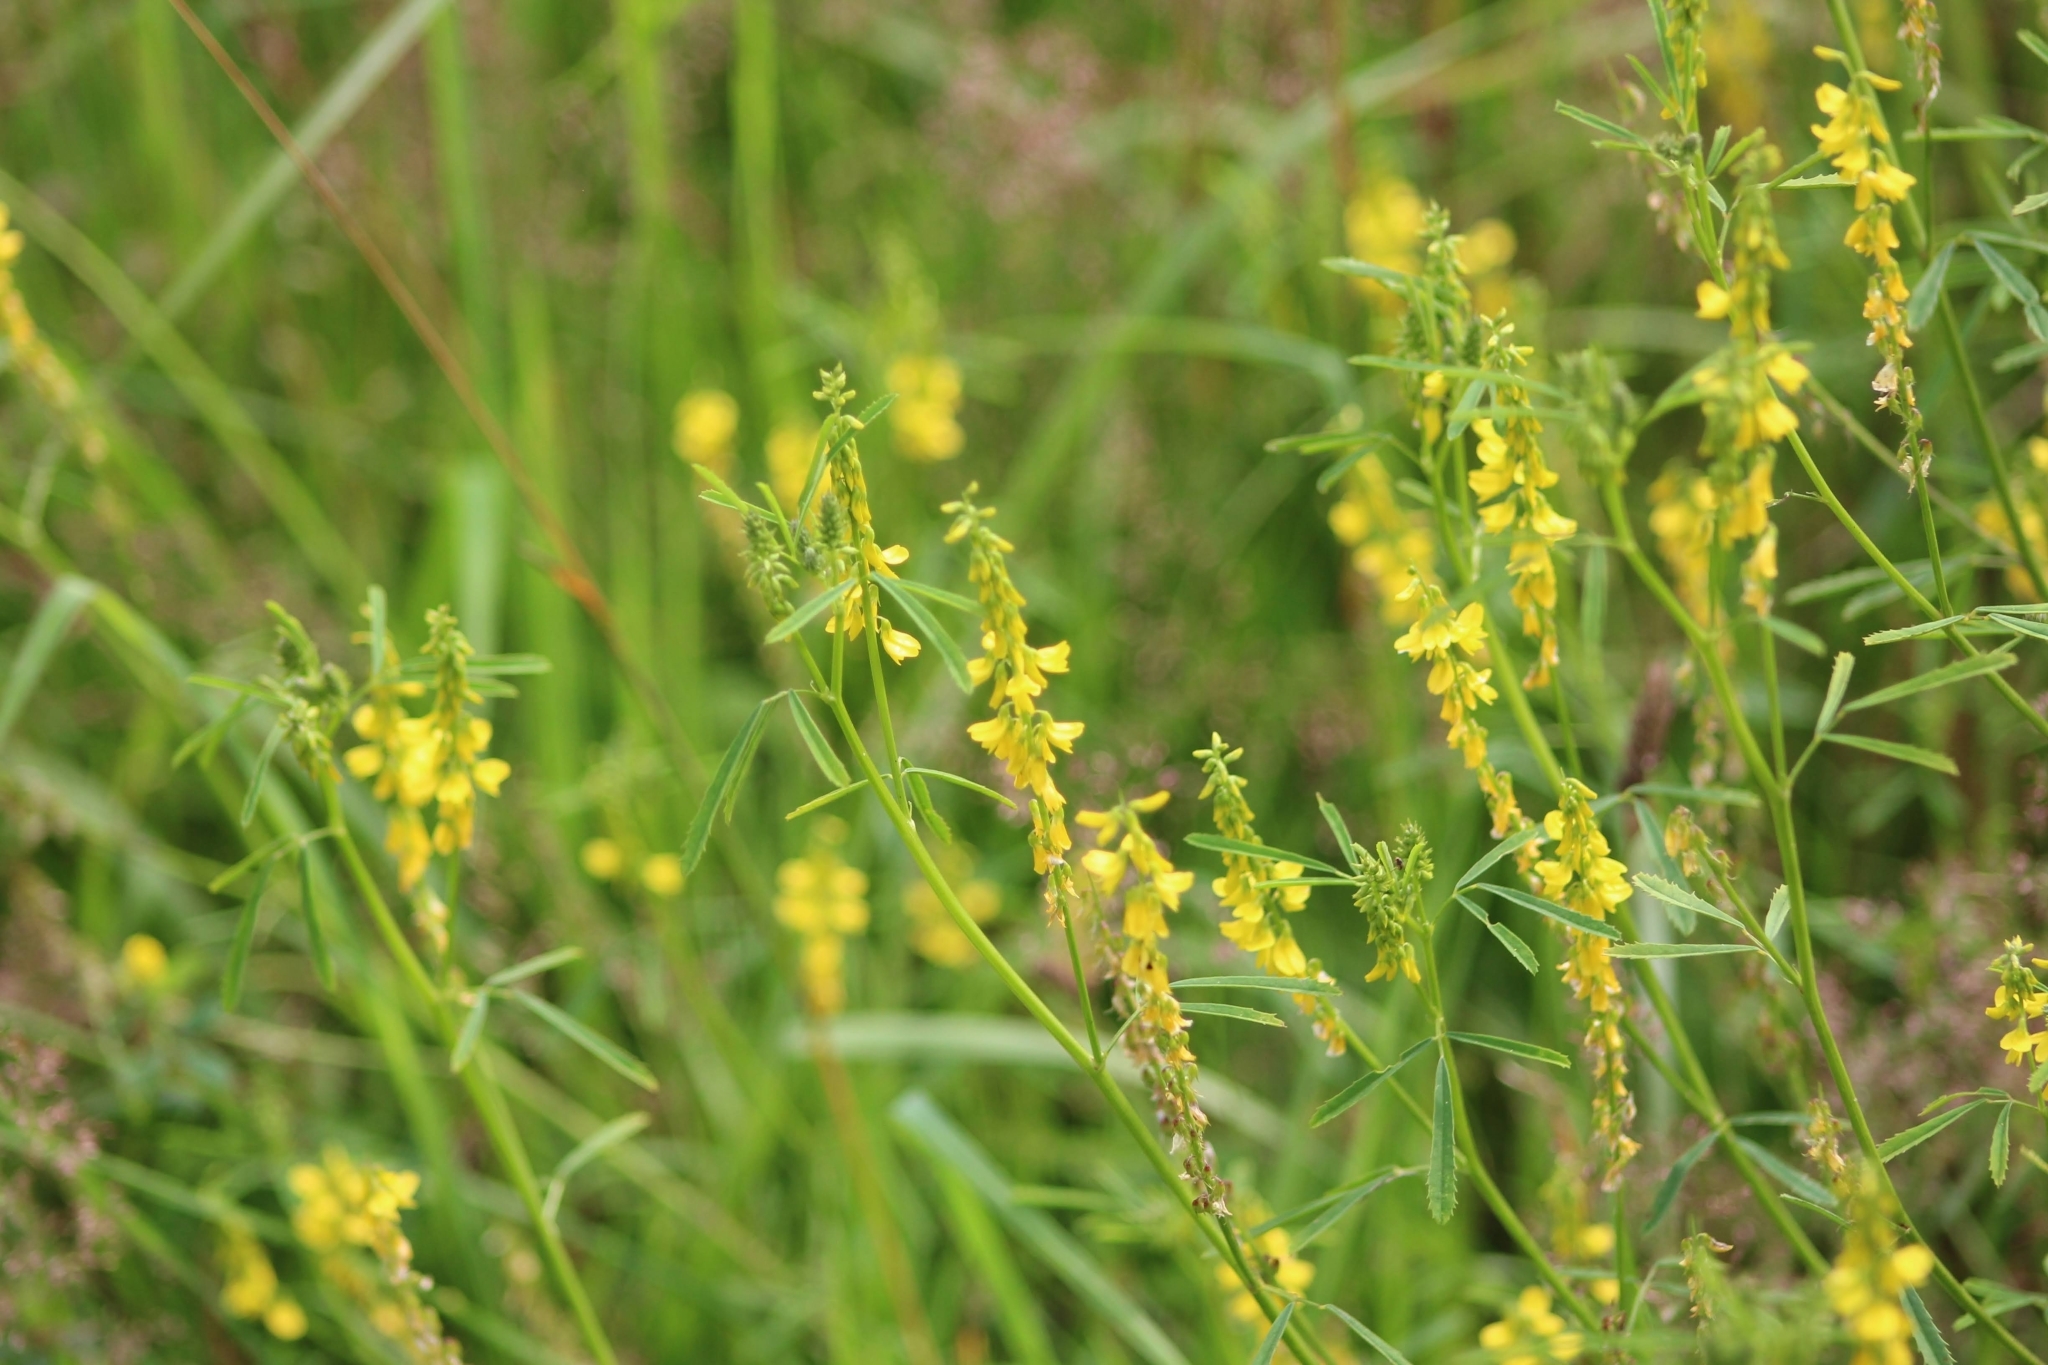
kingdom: Plantae
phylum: Tracheophyta
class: Magnoliopsida
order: Fabales
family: Fabaceae
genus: Melilotus
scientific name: Melilotus officinalis
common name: Sweetclover
